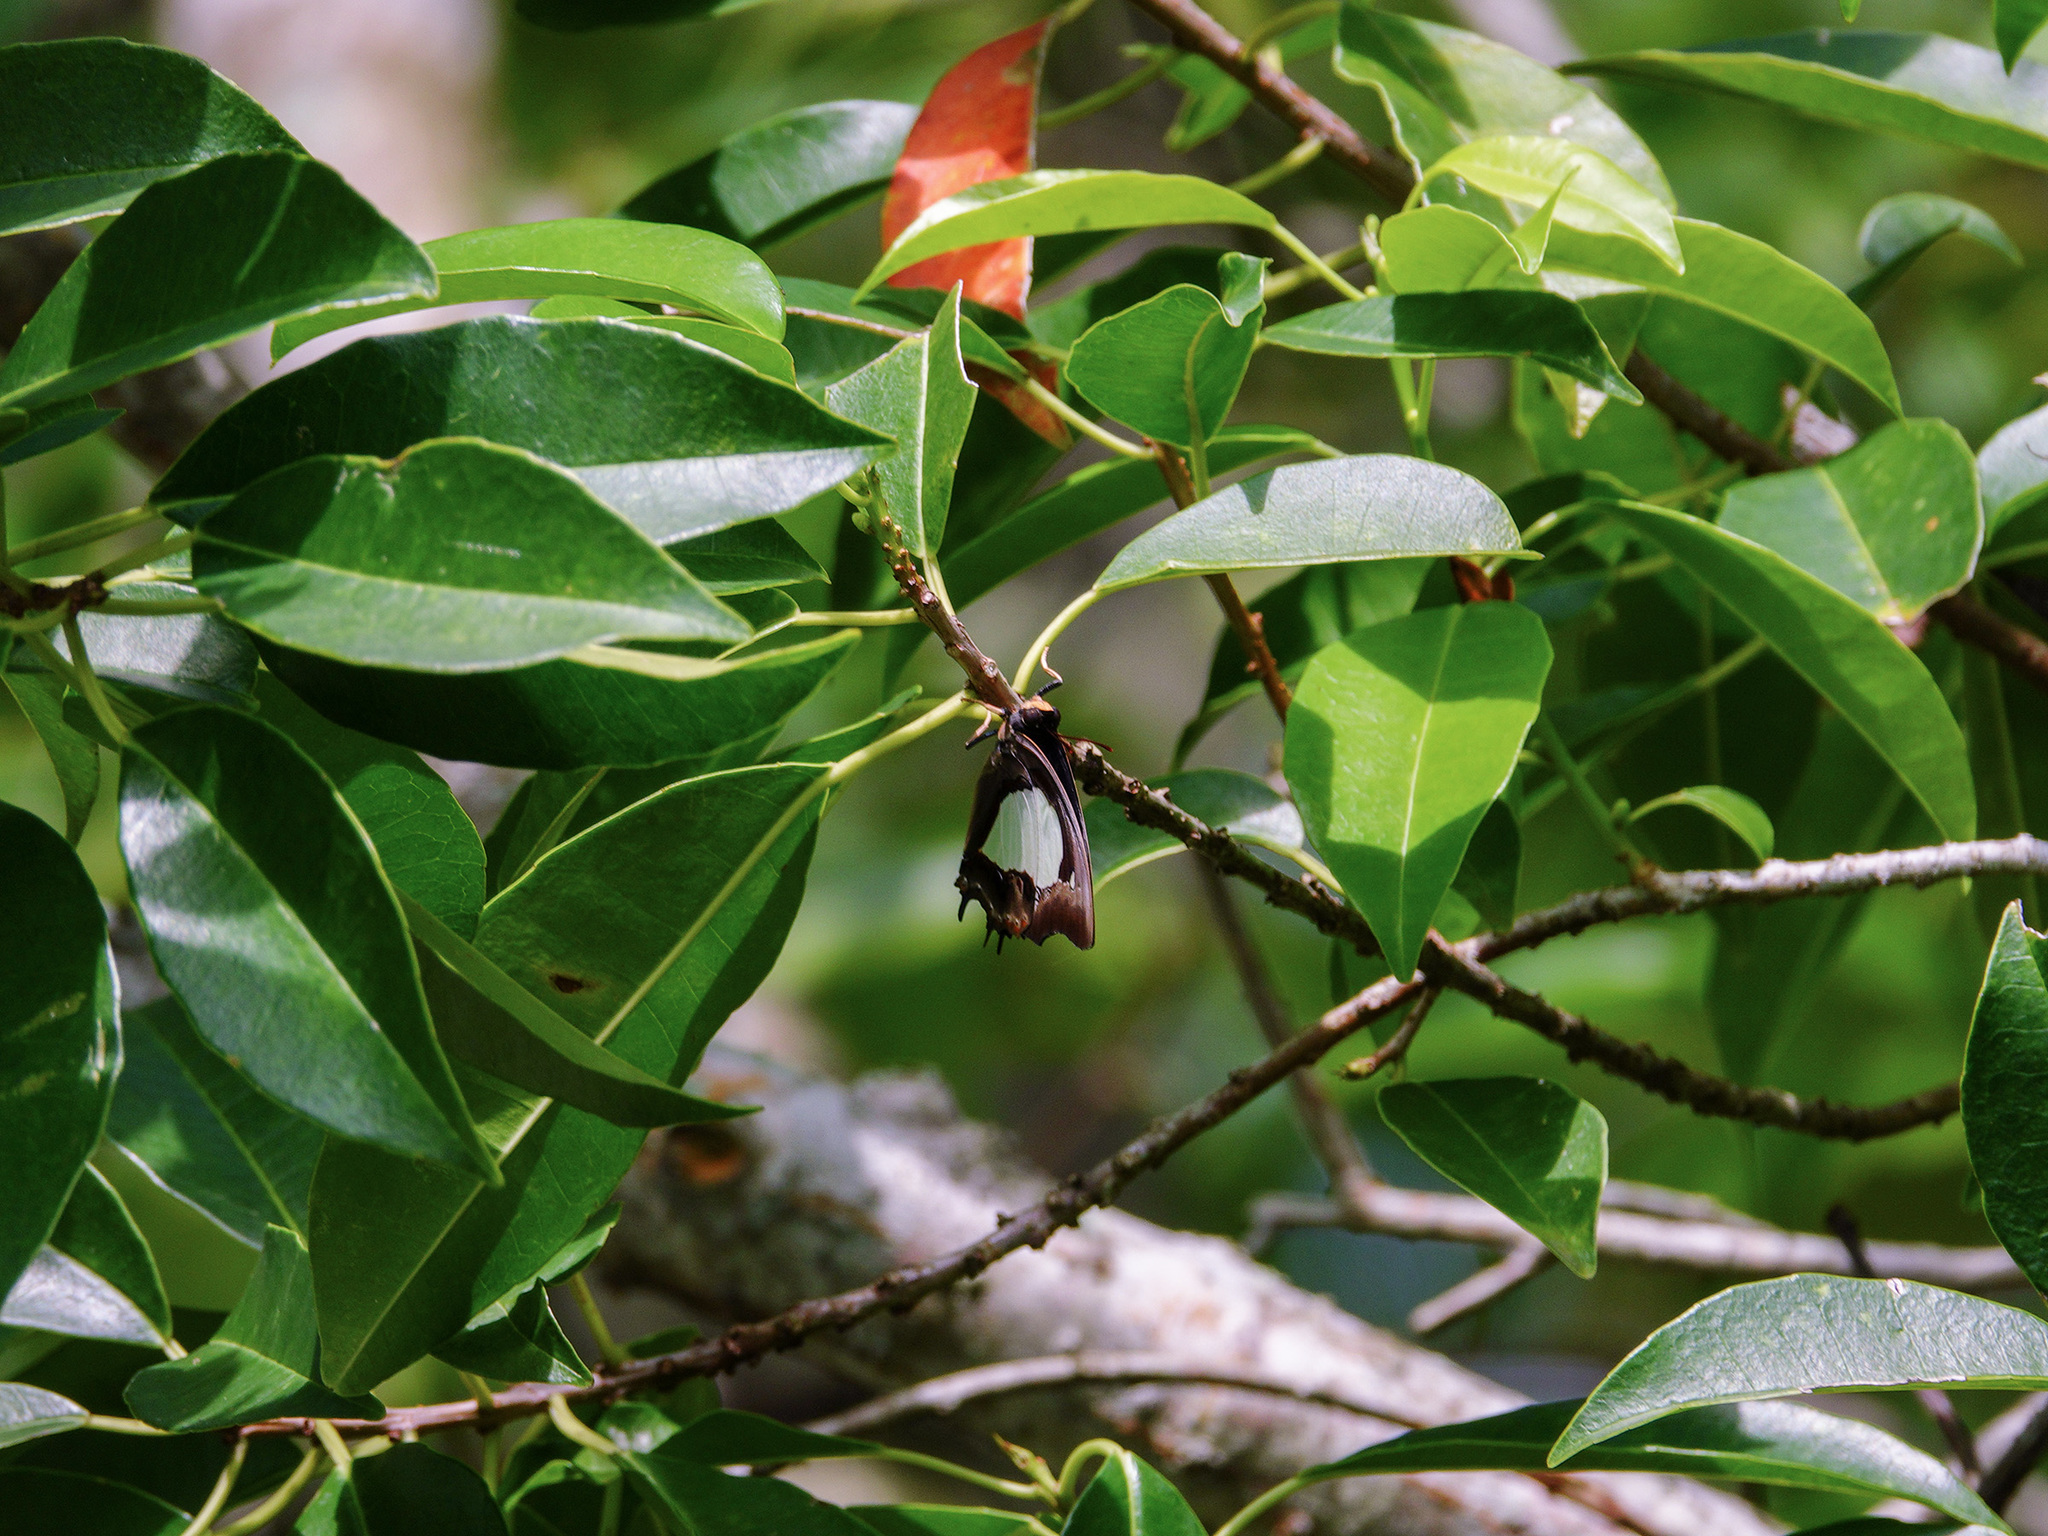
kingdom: Animalia
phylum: Arthropoda
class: Insecta
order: Lepidoptera
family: Nymphalidae
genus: Polyura
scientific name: Polyura moori
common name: Malayan nawab
